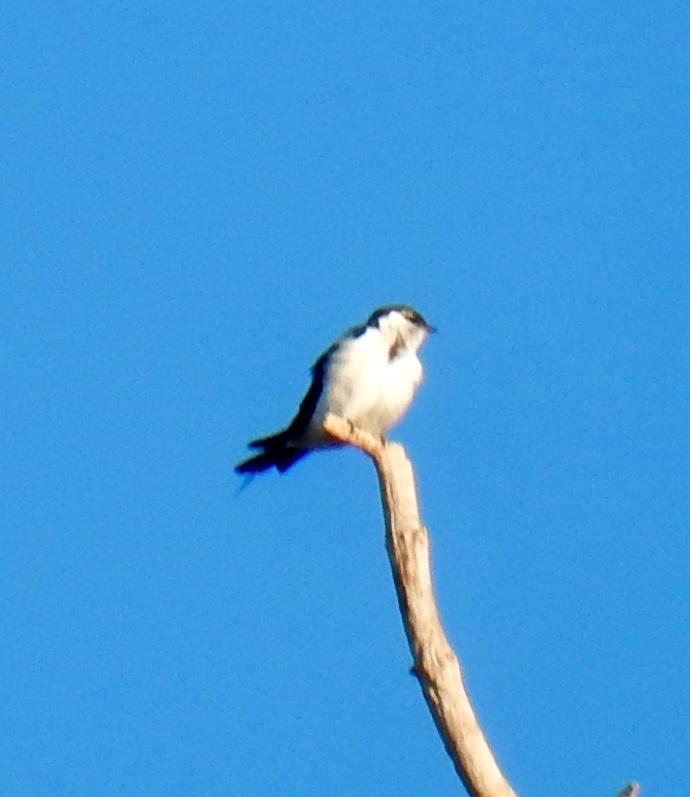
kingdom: Animalia
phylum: Chordata
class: Aves
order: Passeriformes
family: Hirundinidae
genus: Tachycineta
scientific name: Tachycineta thalassina
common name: Violet-green swallow
